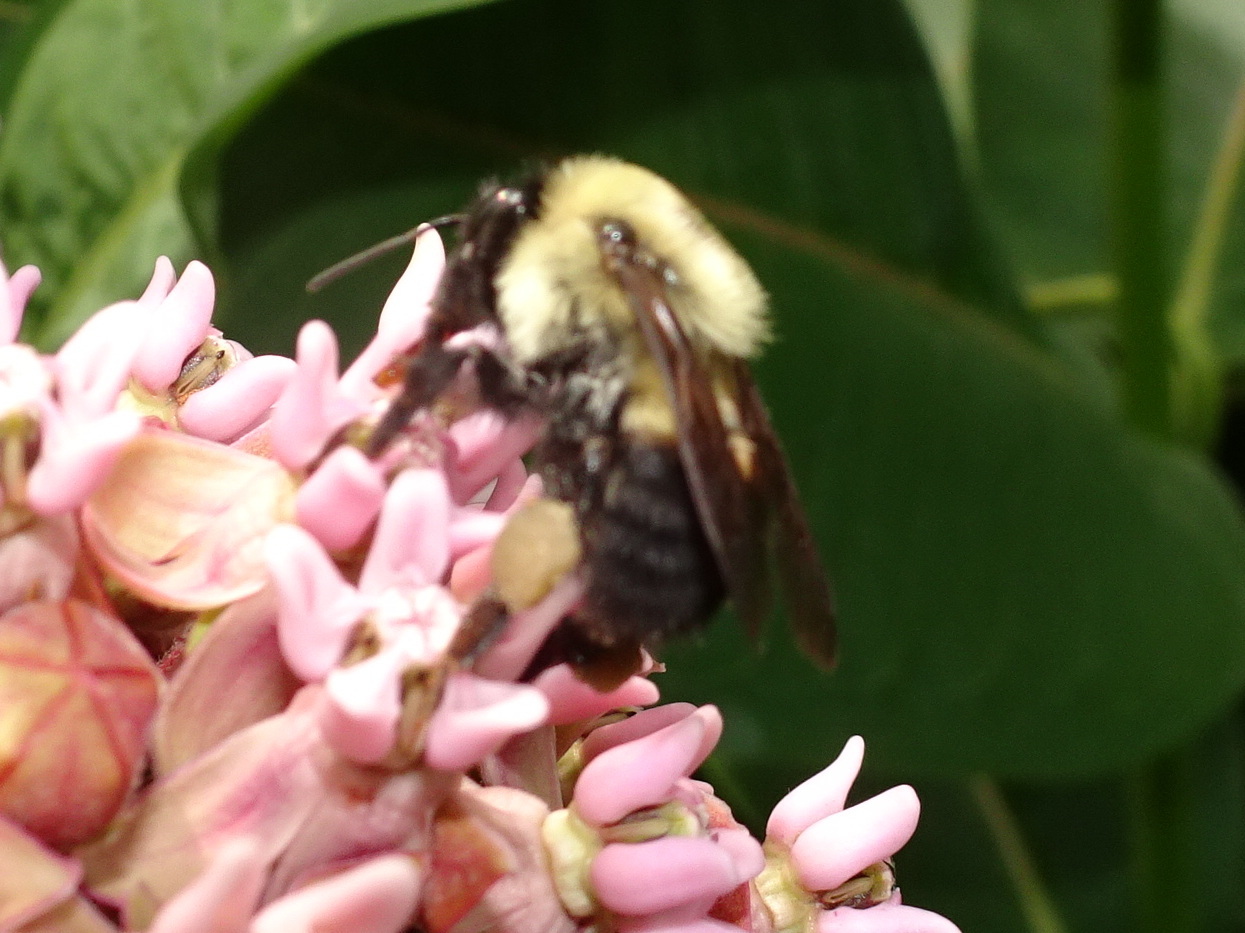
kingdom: Animalia
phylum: Arthropoda
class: Insecta
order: Hymenoptera
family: Apidae
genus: Bombus
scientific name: Bombus griseocollis
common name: Brown-belted bumble bee
